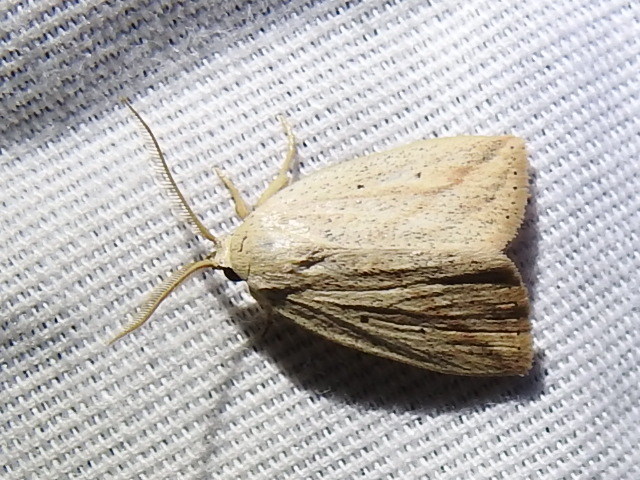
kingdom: Animalia
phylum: Arthropoda
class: Insecta
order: Lepidoptera
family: Noctuidae
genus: Amolita
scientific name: Amolita obliqua
